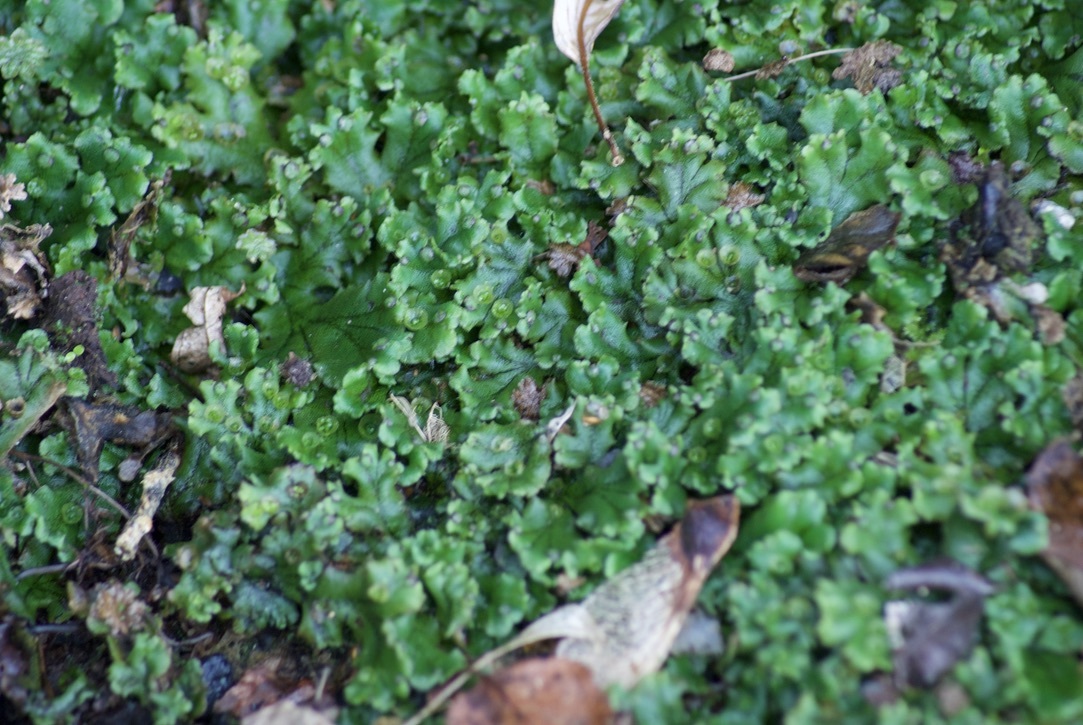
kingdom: Plantae
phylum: Marchantiophyta
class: Marchantiopsida
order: Marchantiales
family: Marchantiaceae
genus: Marchantia
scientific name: Marchantia polymorpha
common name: Common liverwort
